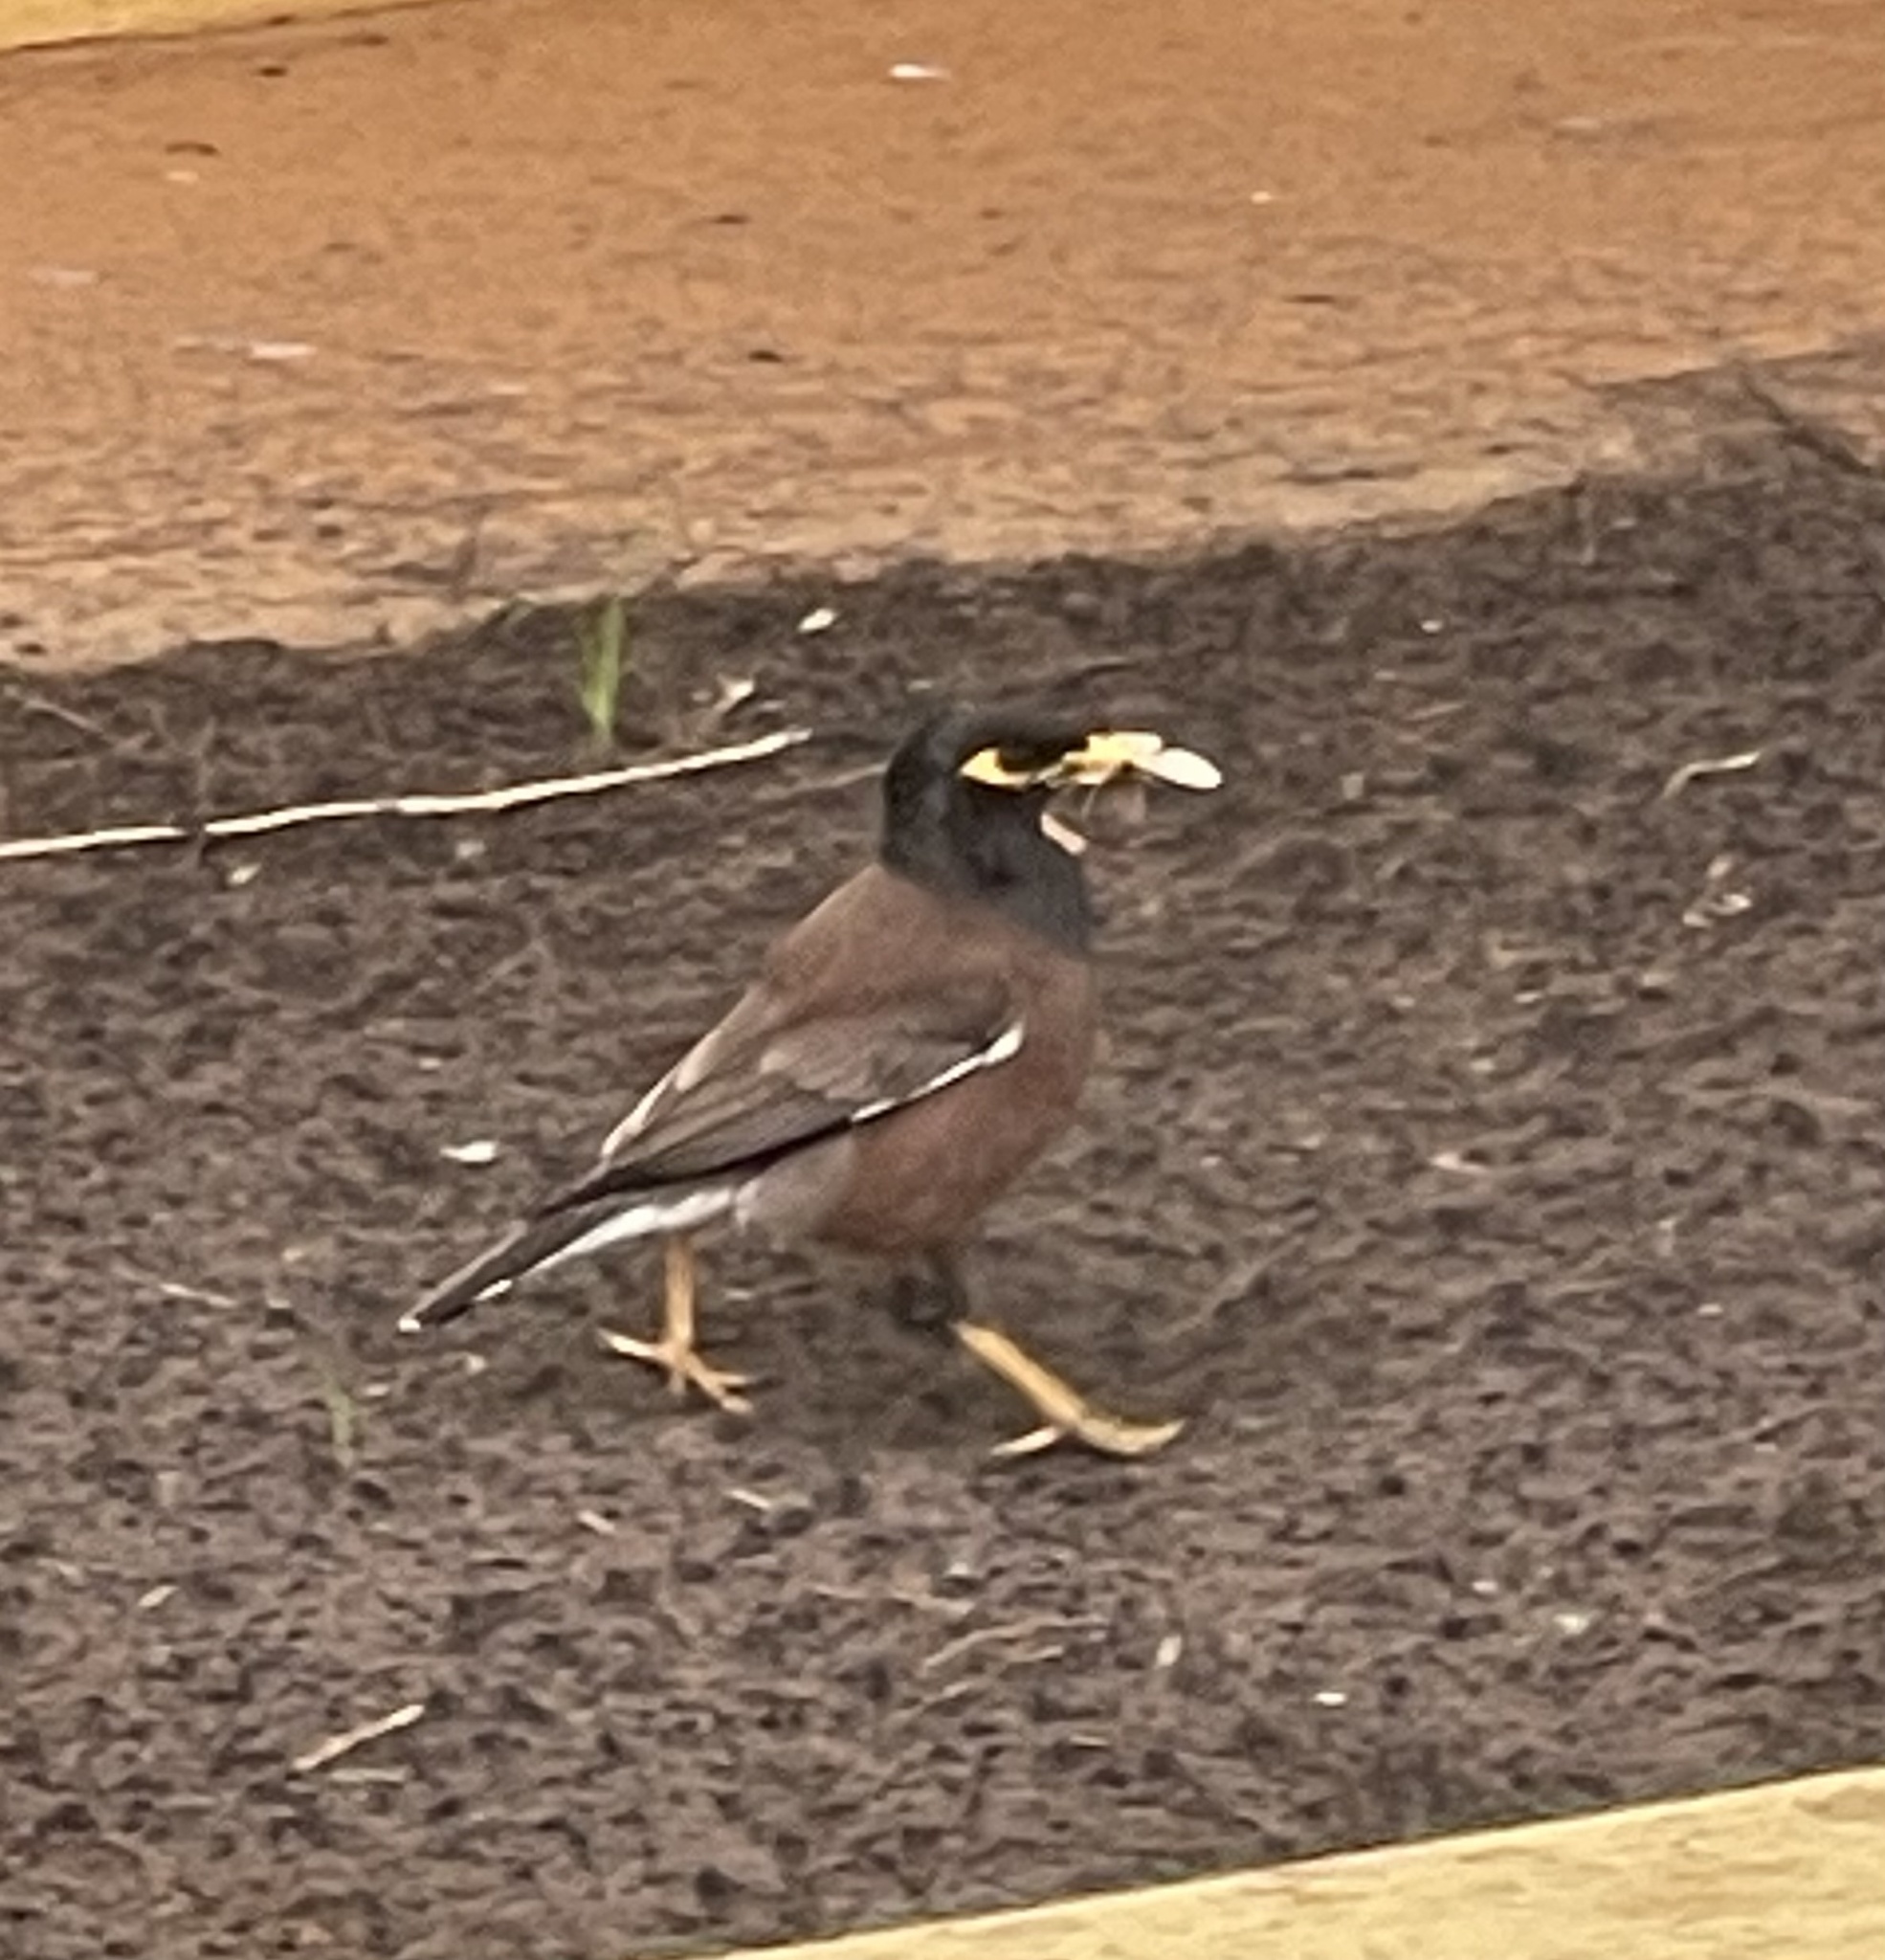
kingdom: Animalia
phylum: Chordata
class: Aves
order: Passeriformes
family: Sturnidae
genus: Acridotheres
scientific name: Acridotheres tristis
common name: Common myna
